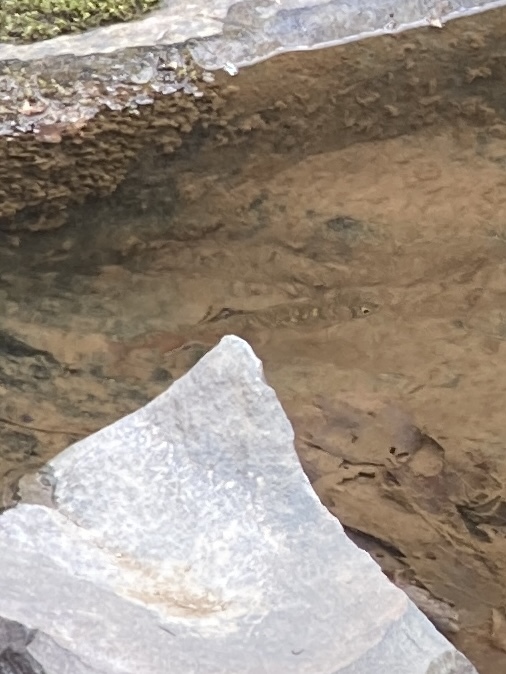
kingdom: Animalia
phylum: Chordata
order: Salmoniformes
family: Salmonidae
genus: Salvelinus
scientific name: Salvelinus fontinalis
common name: Brook trout
